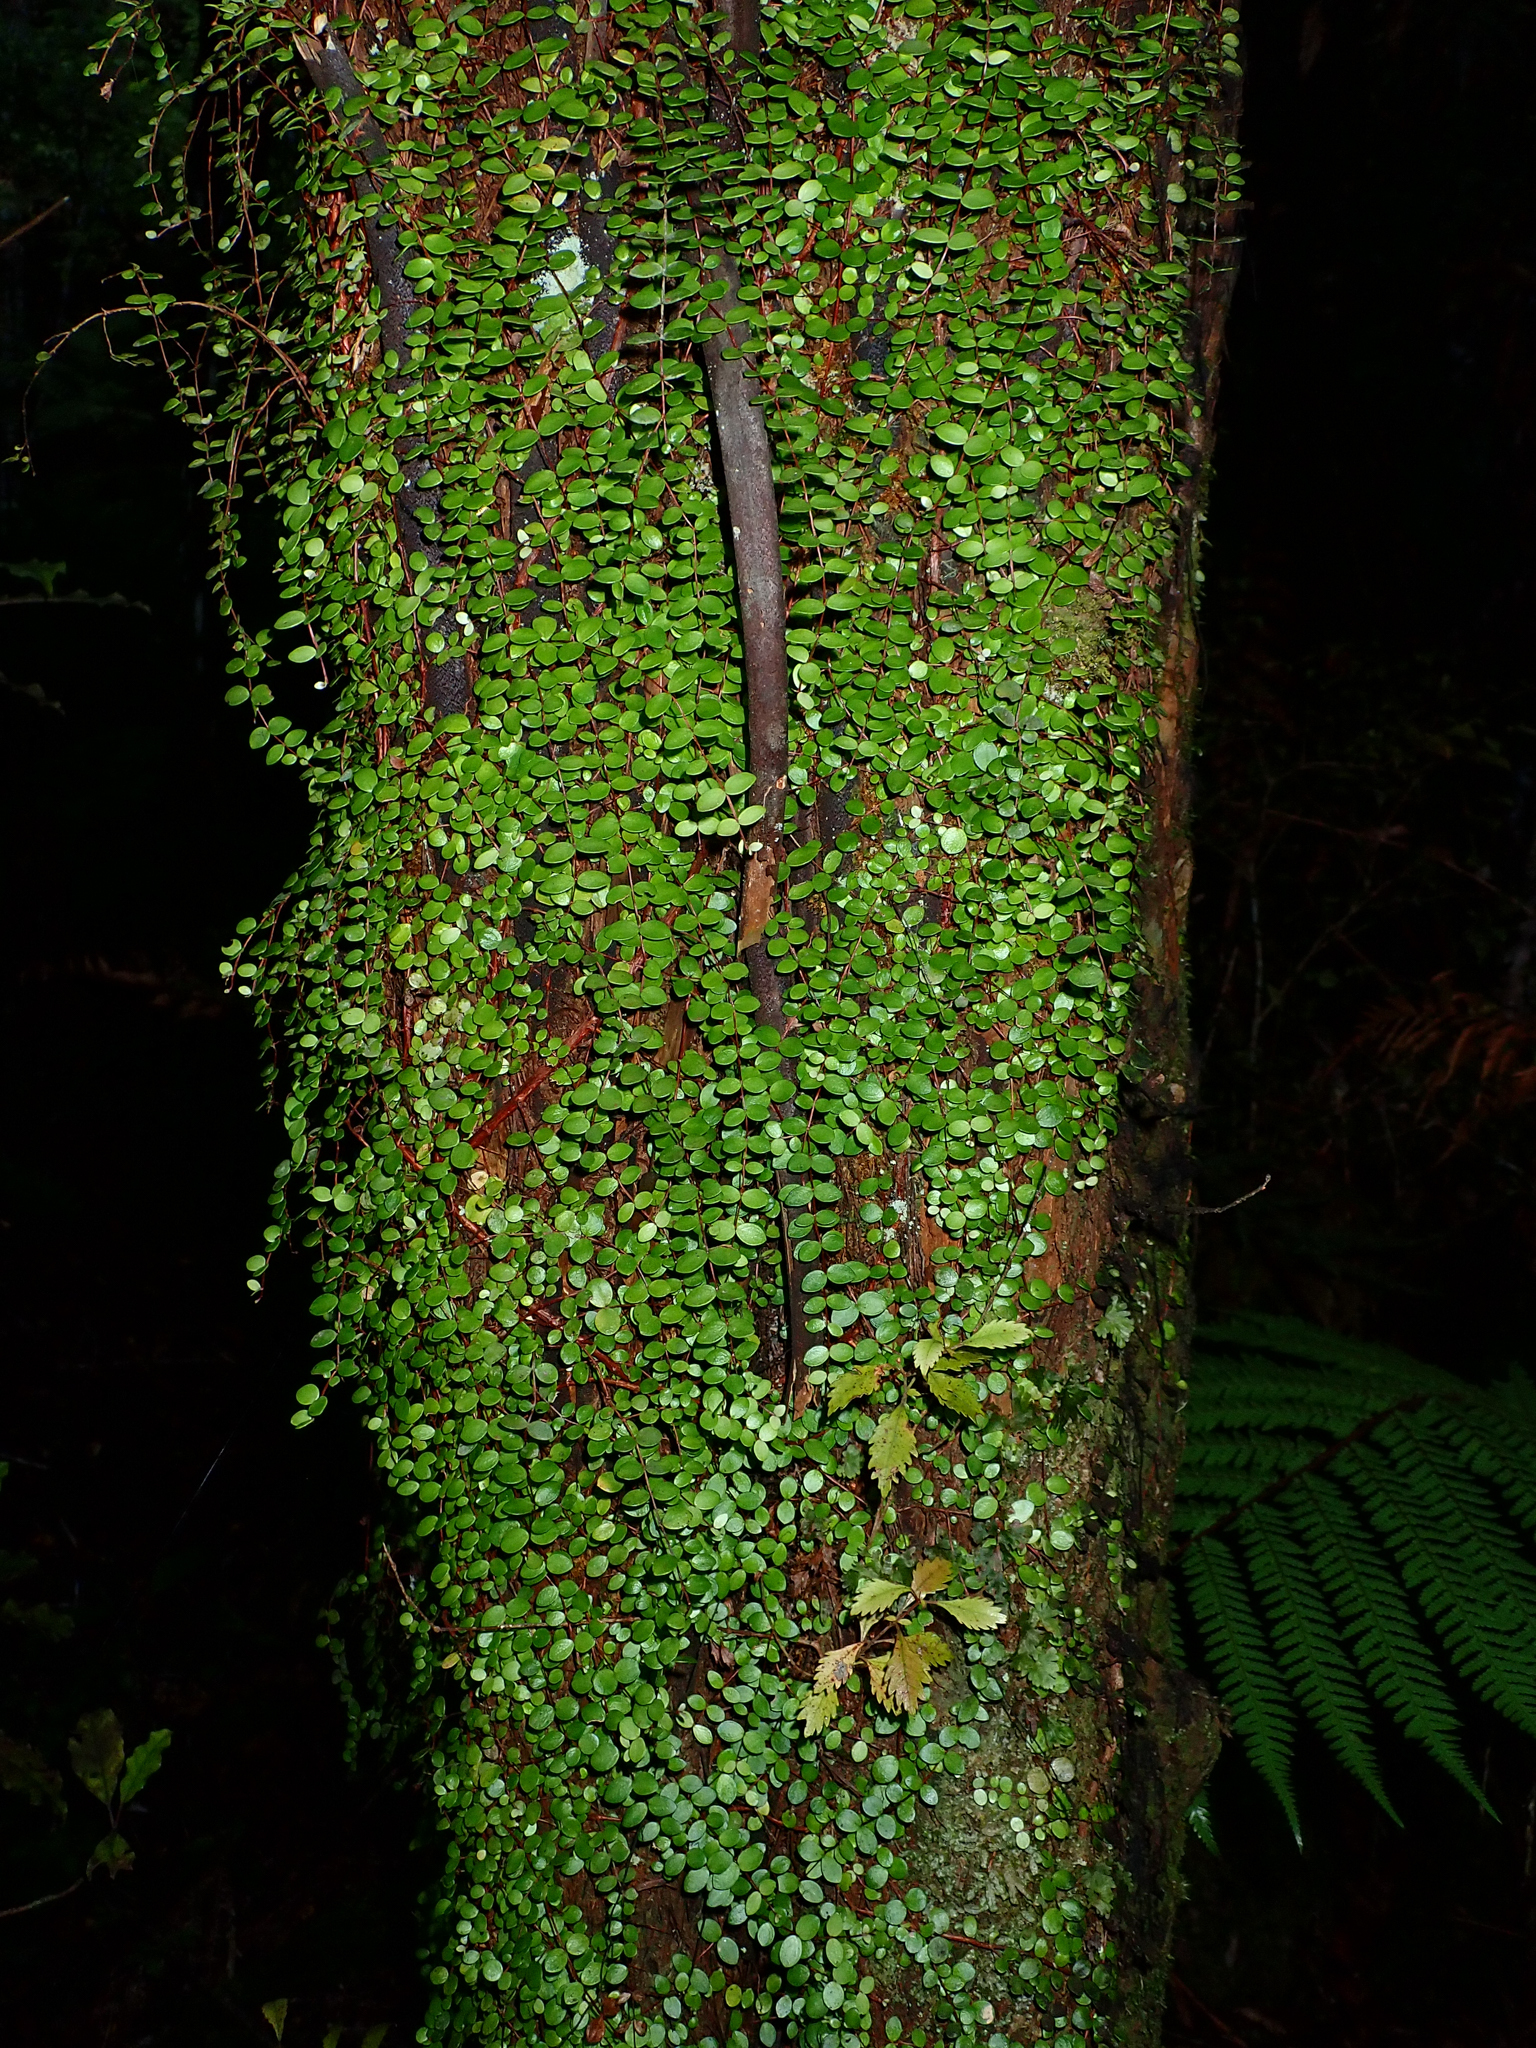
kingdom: Plantae
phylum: Tracheophyta
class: Magnoliopsida
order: Myrtales
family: Myrtaceae
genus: Metrosideros
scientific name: Metrosideros perforata
